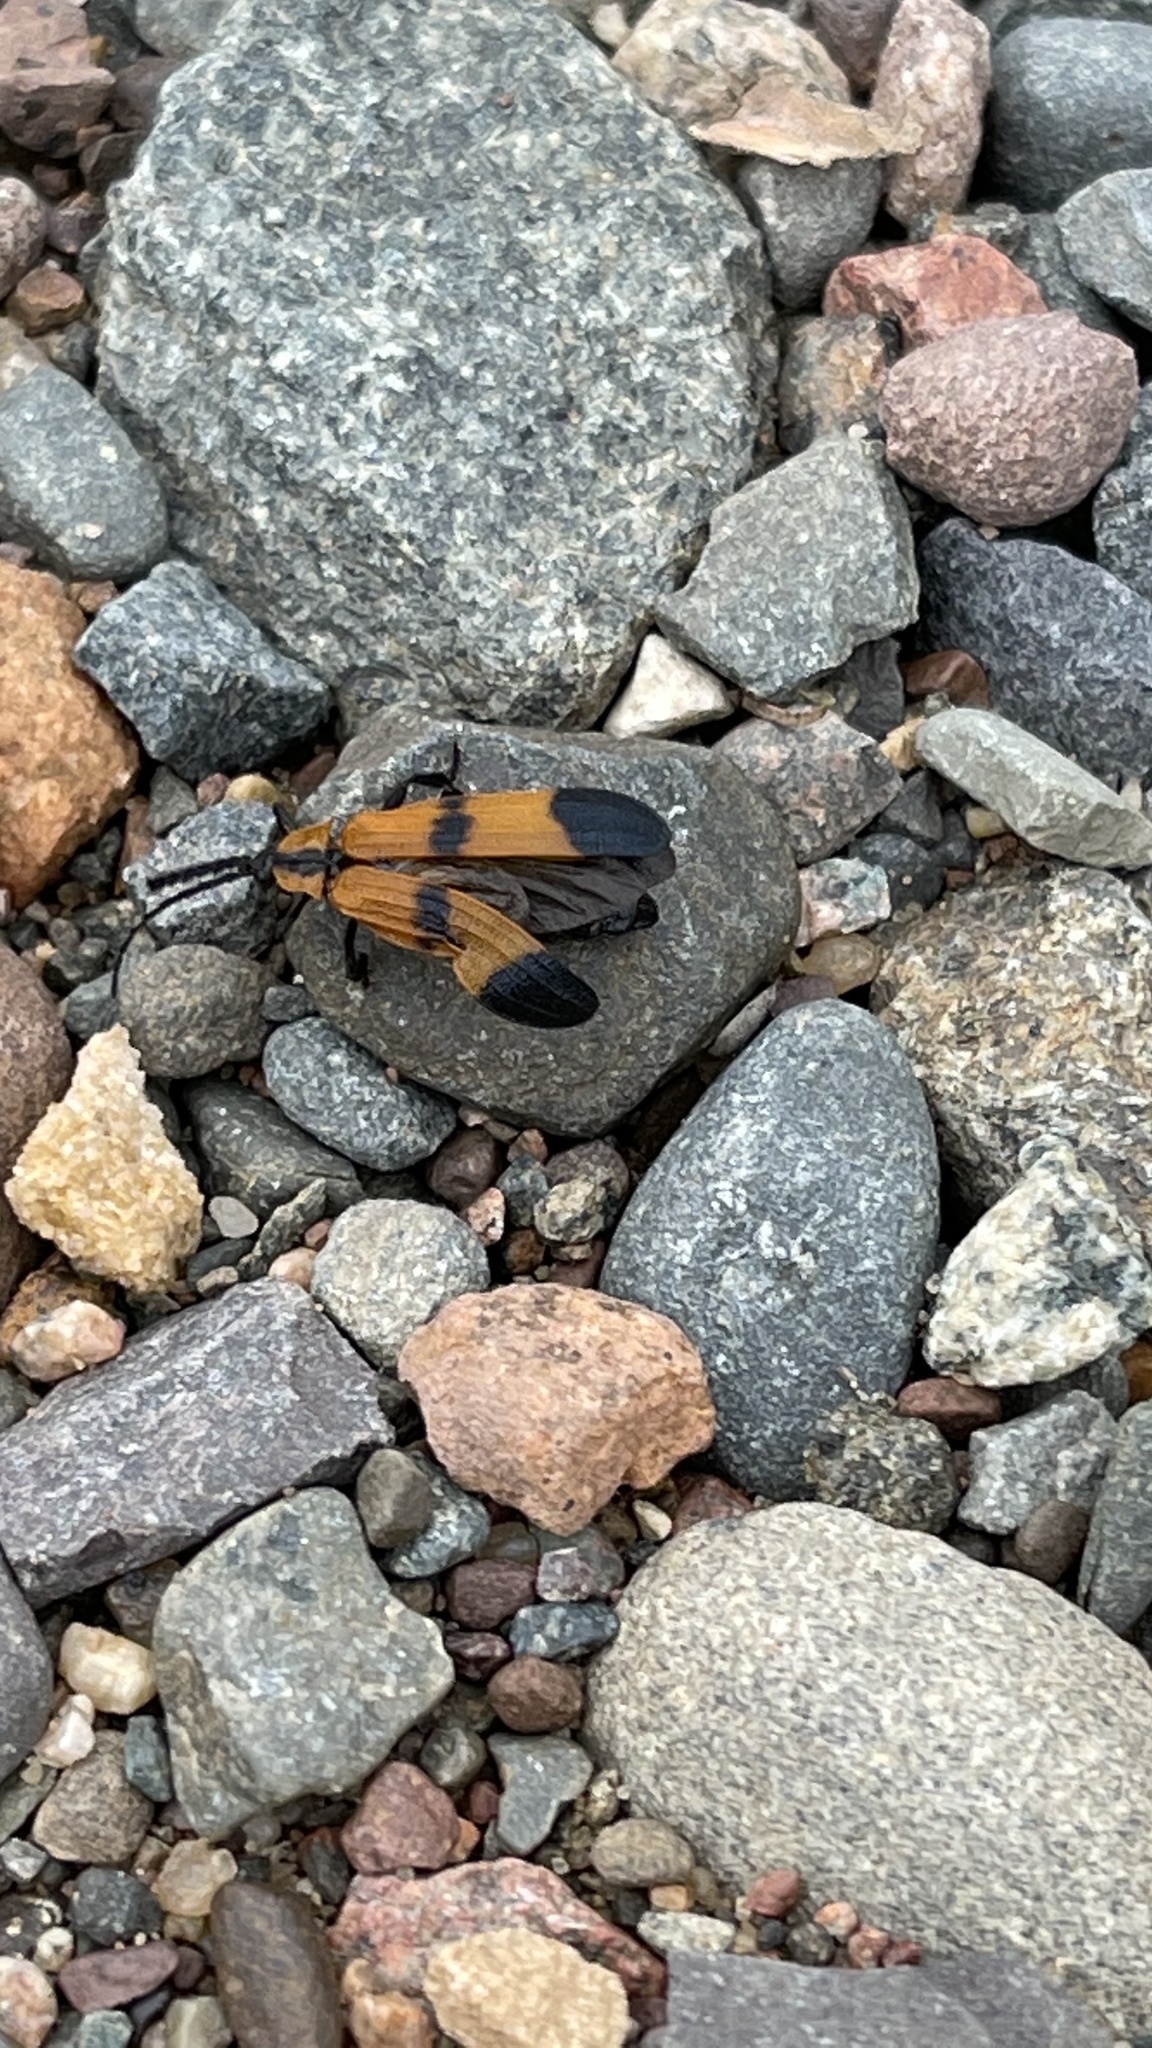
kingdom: Animalia
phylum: Arthropoda
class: Insecta
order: Coleoptera
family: Lycidae
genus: Calopteron
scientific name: Calopteron reticulatum
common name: Banded net-winged beetle
